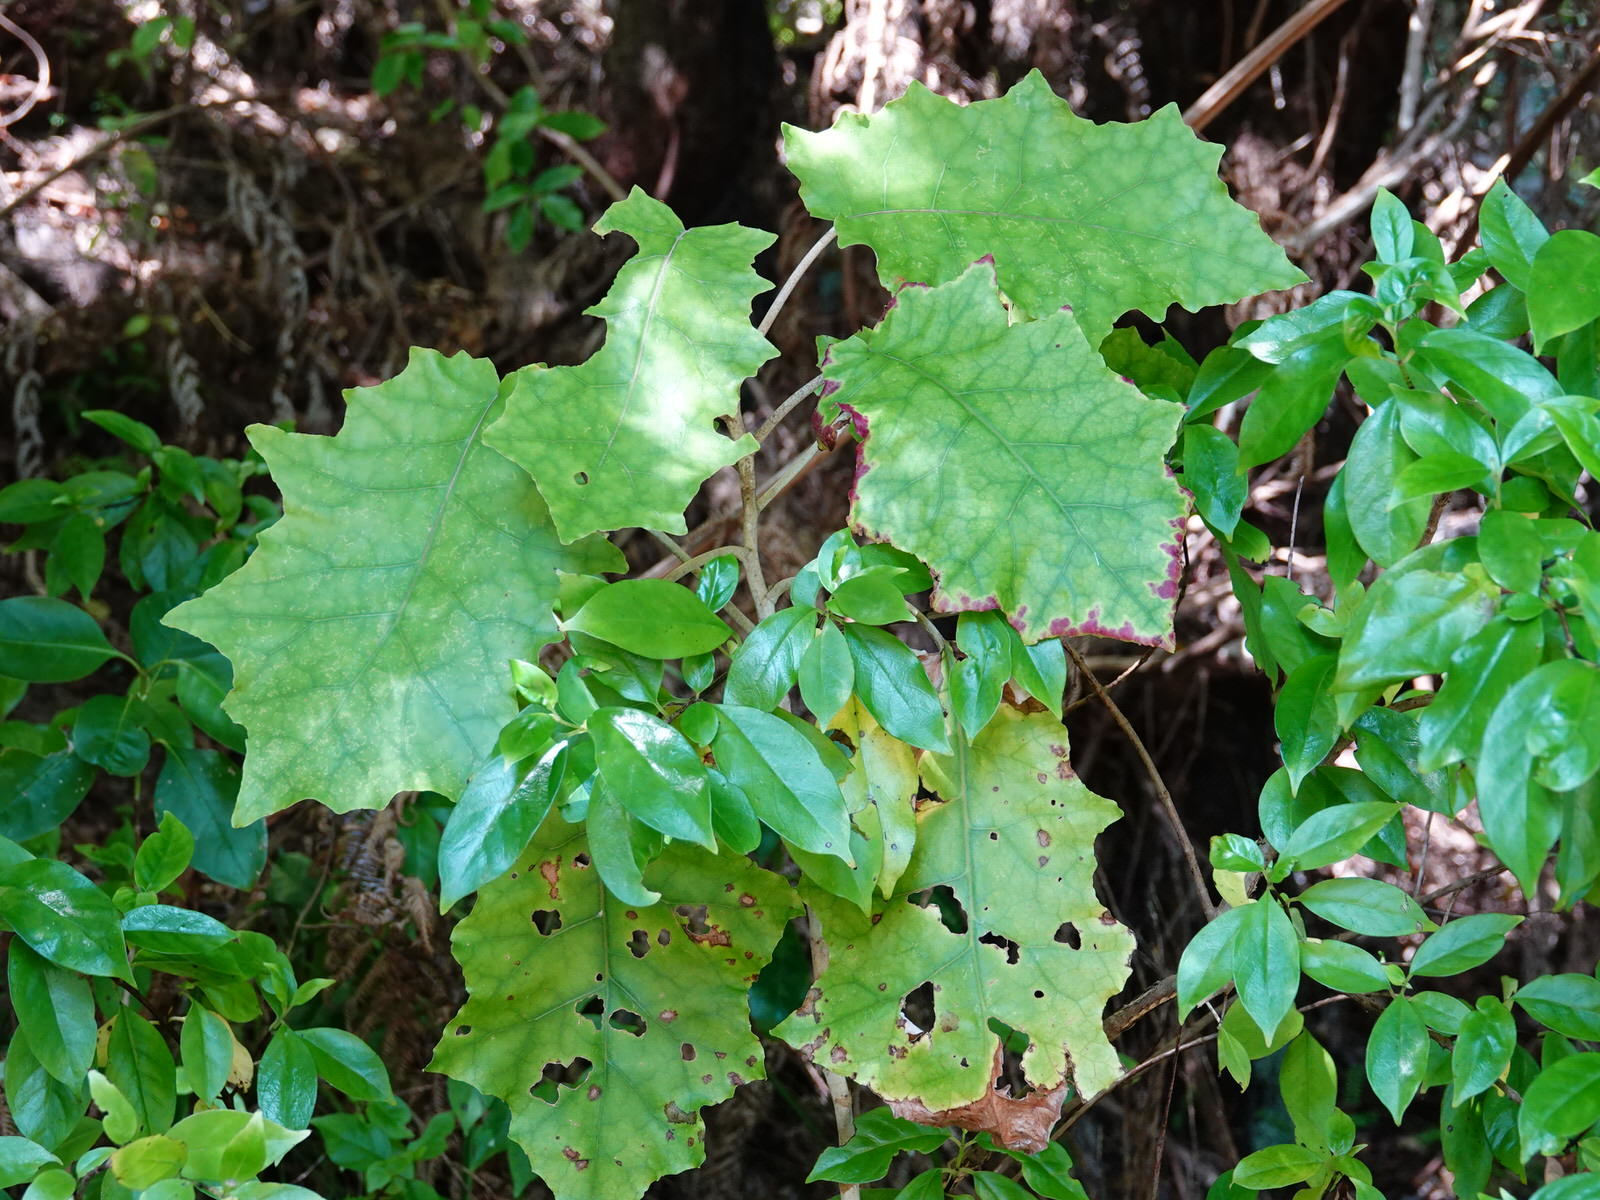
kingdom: Plantae
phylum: Tracheophyta
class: Magnoliopsida
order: Asterales
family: Asteraceae
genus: Brachyglottis
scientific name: Brachyglottis repanda
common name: Hedge ragwort
